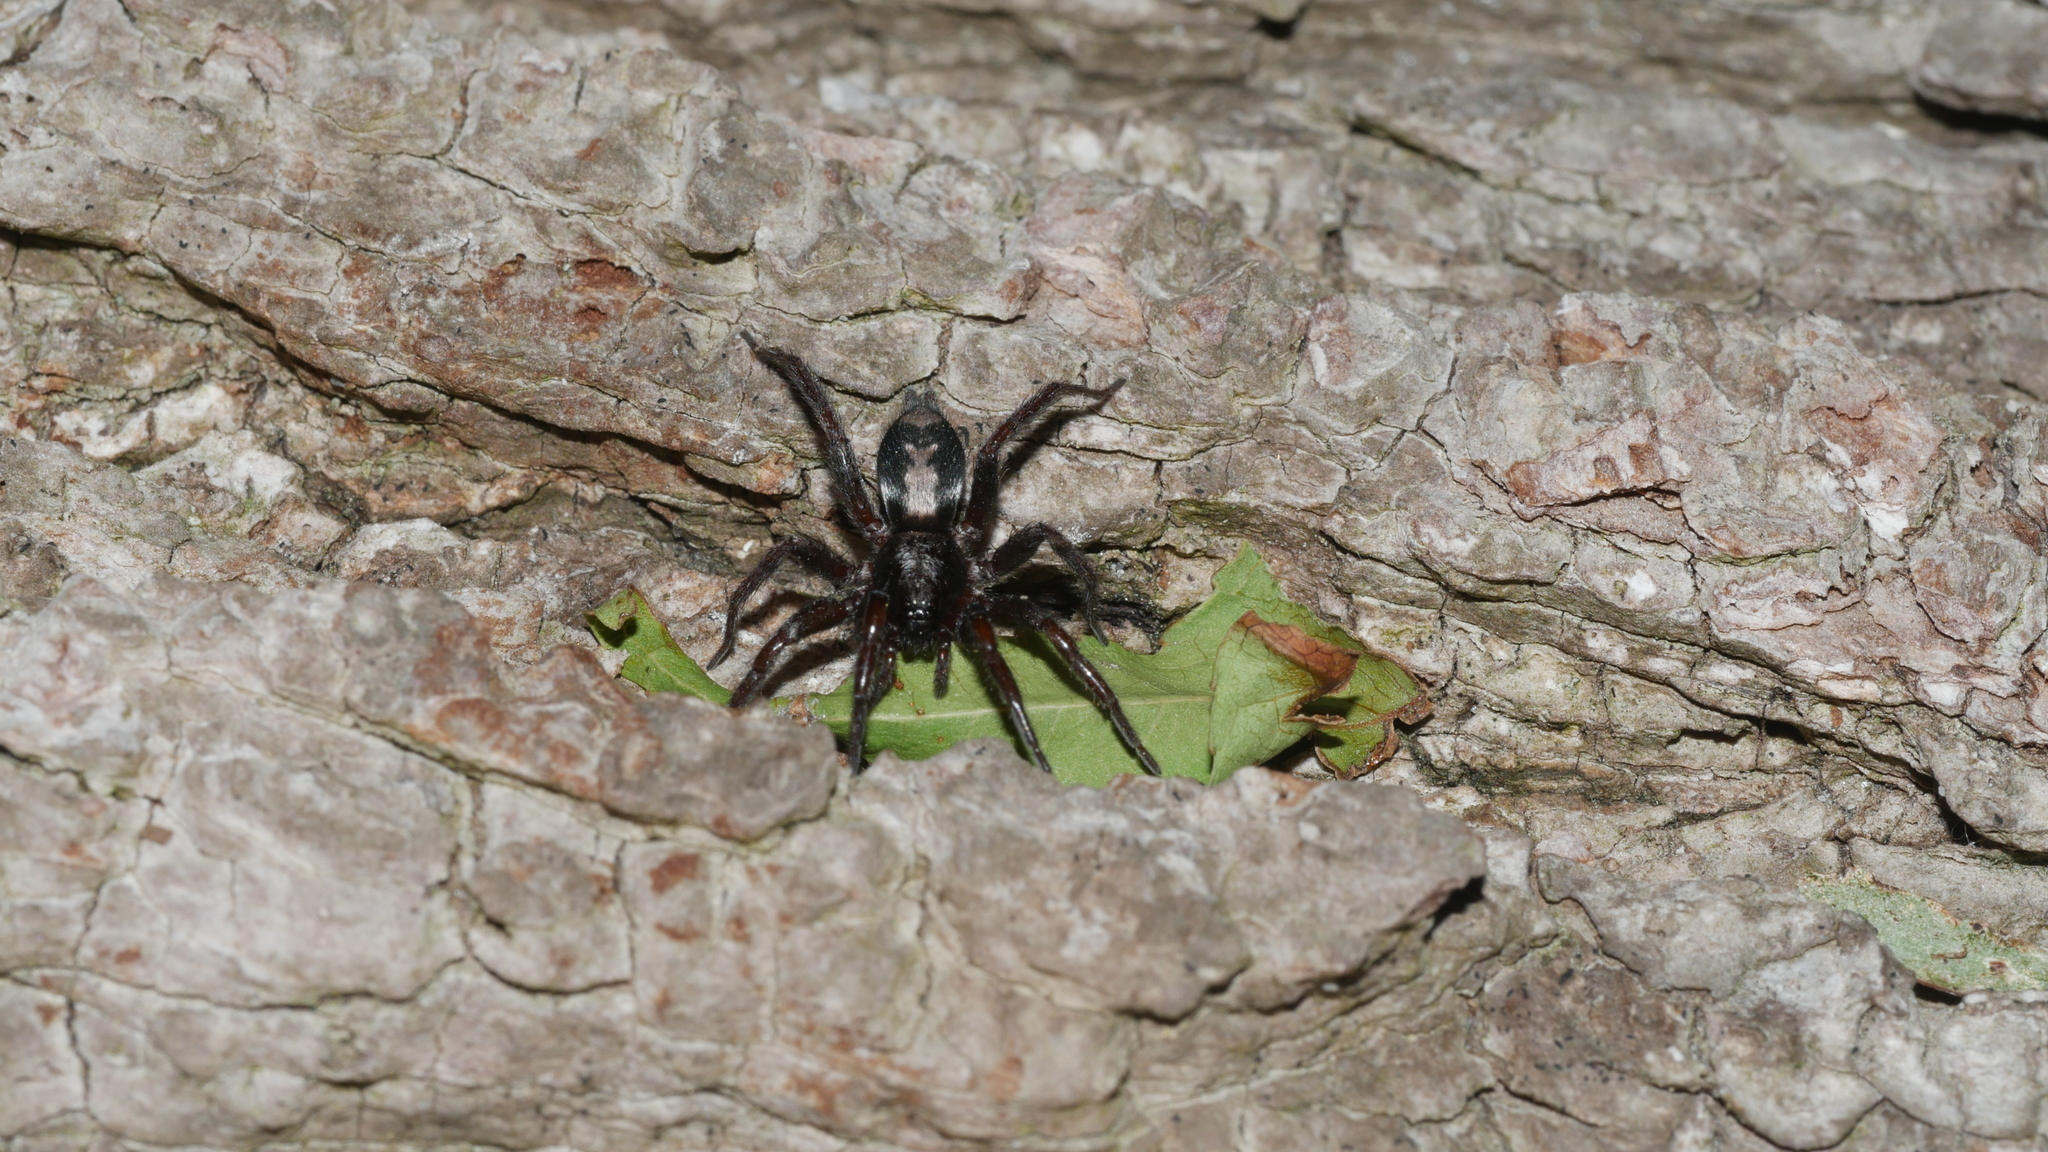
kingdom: Animalia
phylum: Arthropoda
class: Arachnida
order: Araneae
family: Gnaphosidae
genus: Herpyllus
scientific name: Herpyllus ecclesiasticus
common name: Eastern parson spider
